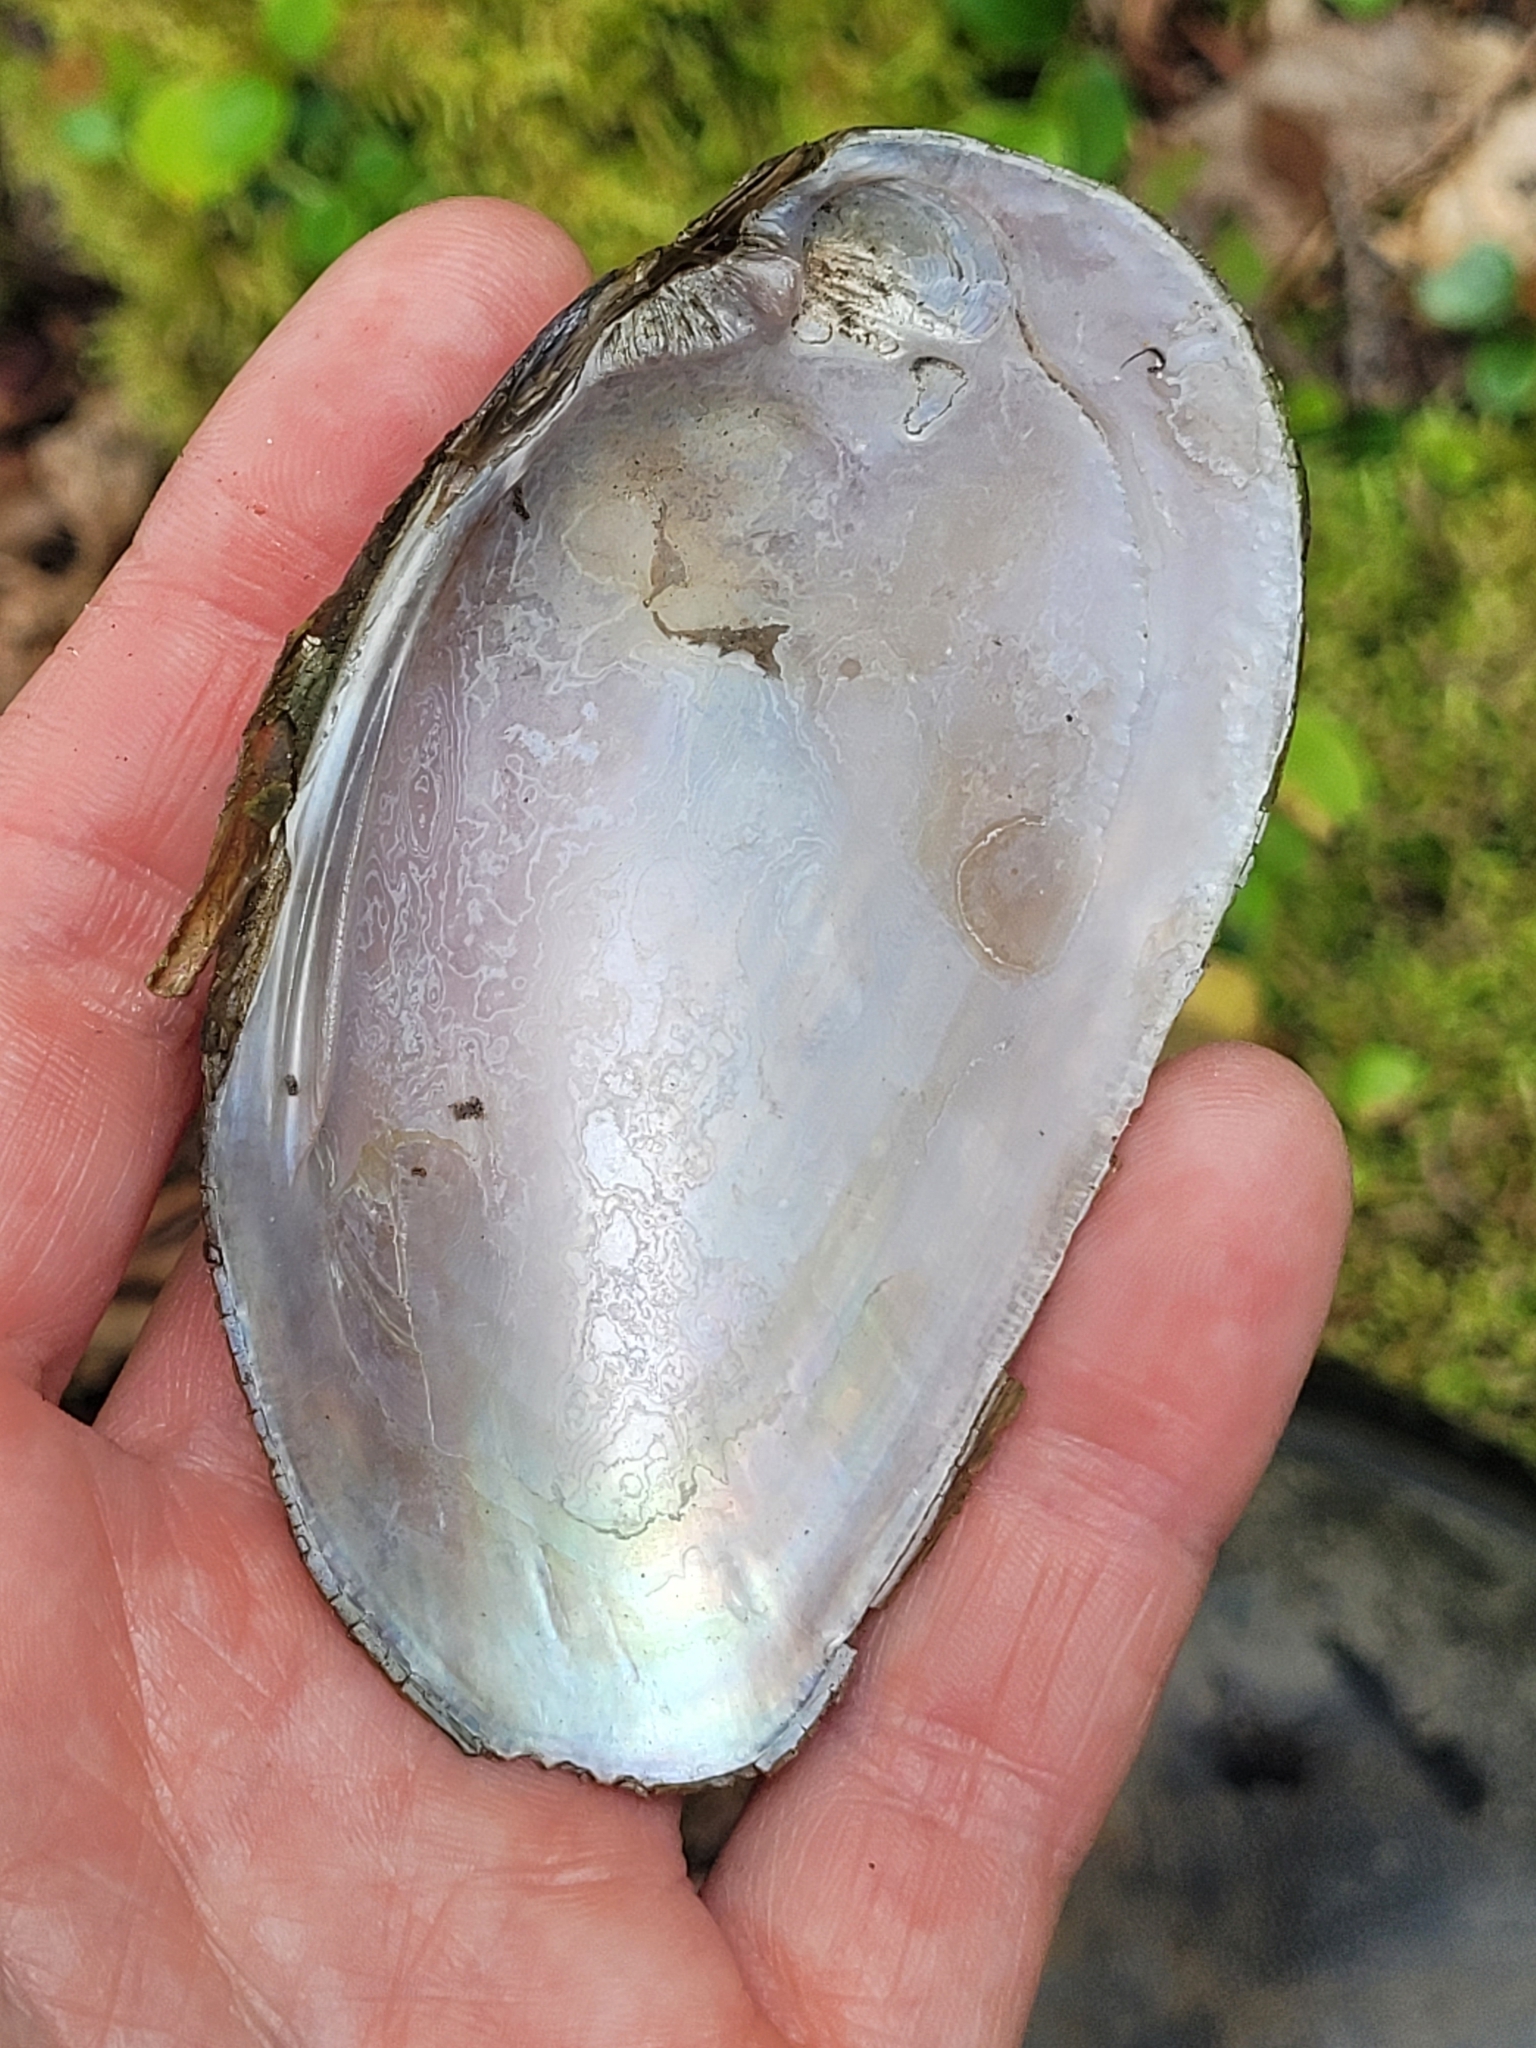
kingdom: Animalia
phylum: Mollusca
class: Bivalvia
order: Unionida
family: Unionidae
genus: Elliptio
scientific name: Elliptio complanata
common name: Eastern elliptio
